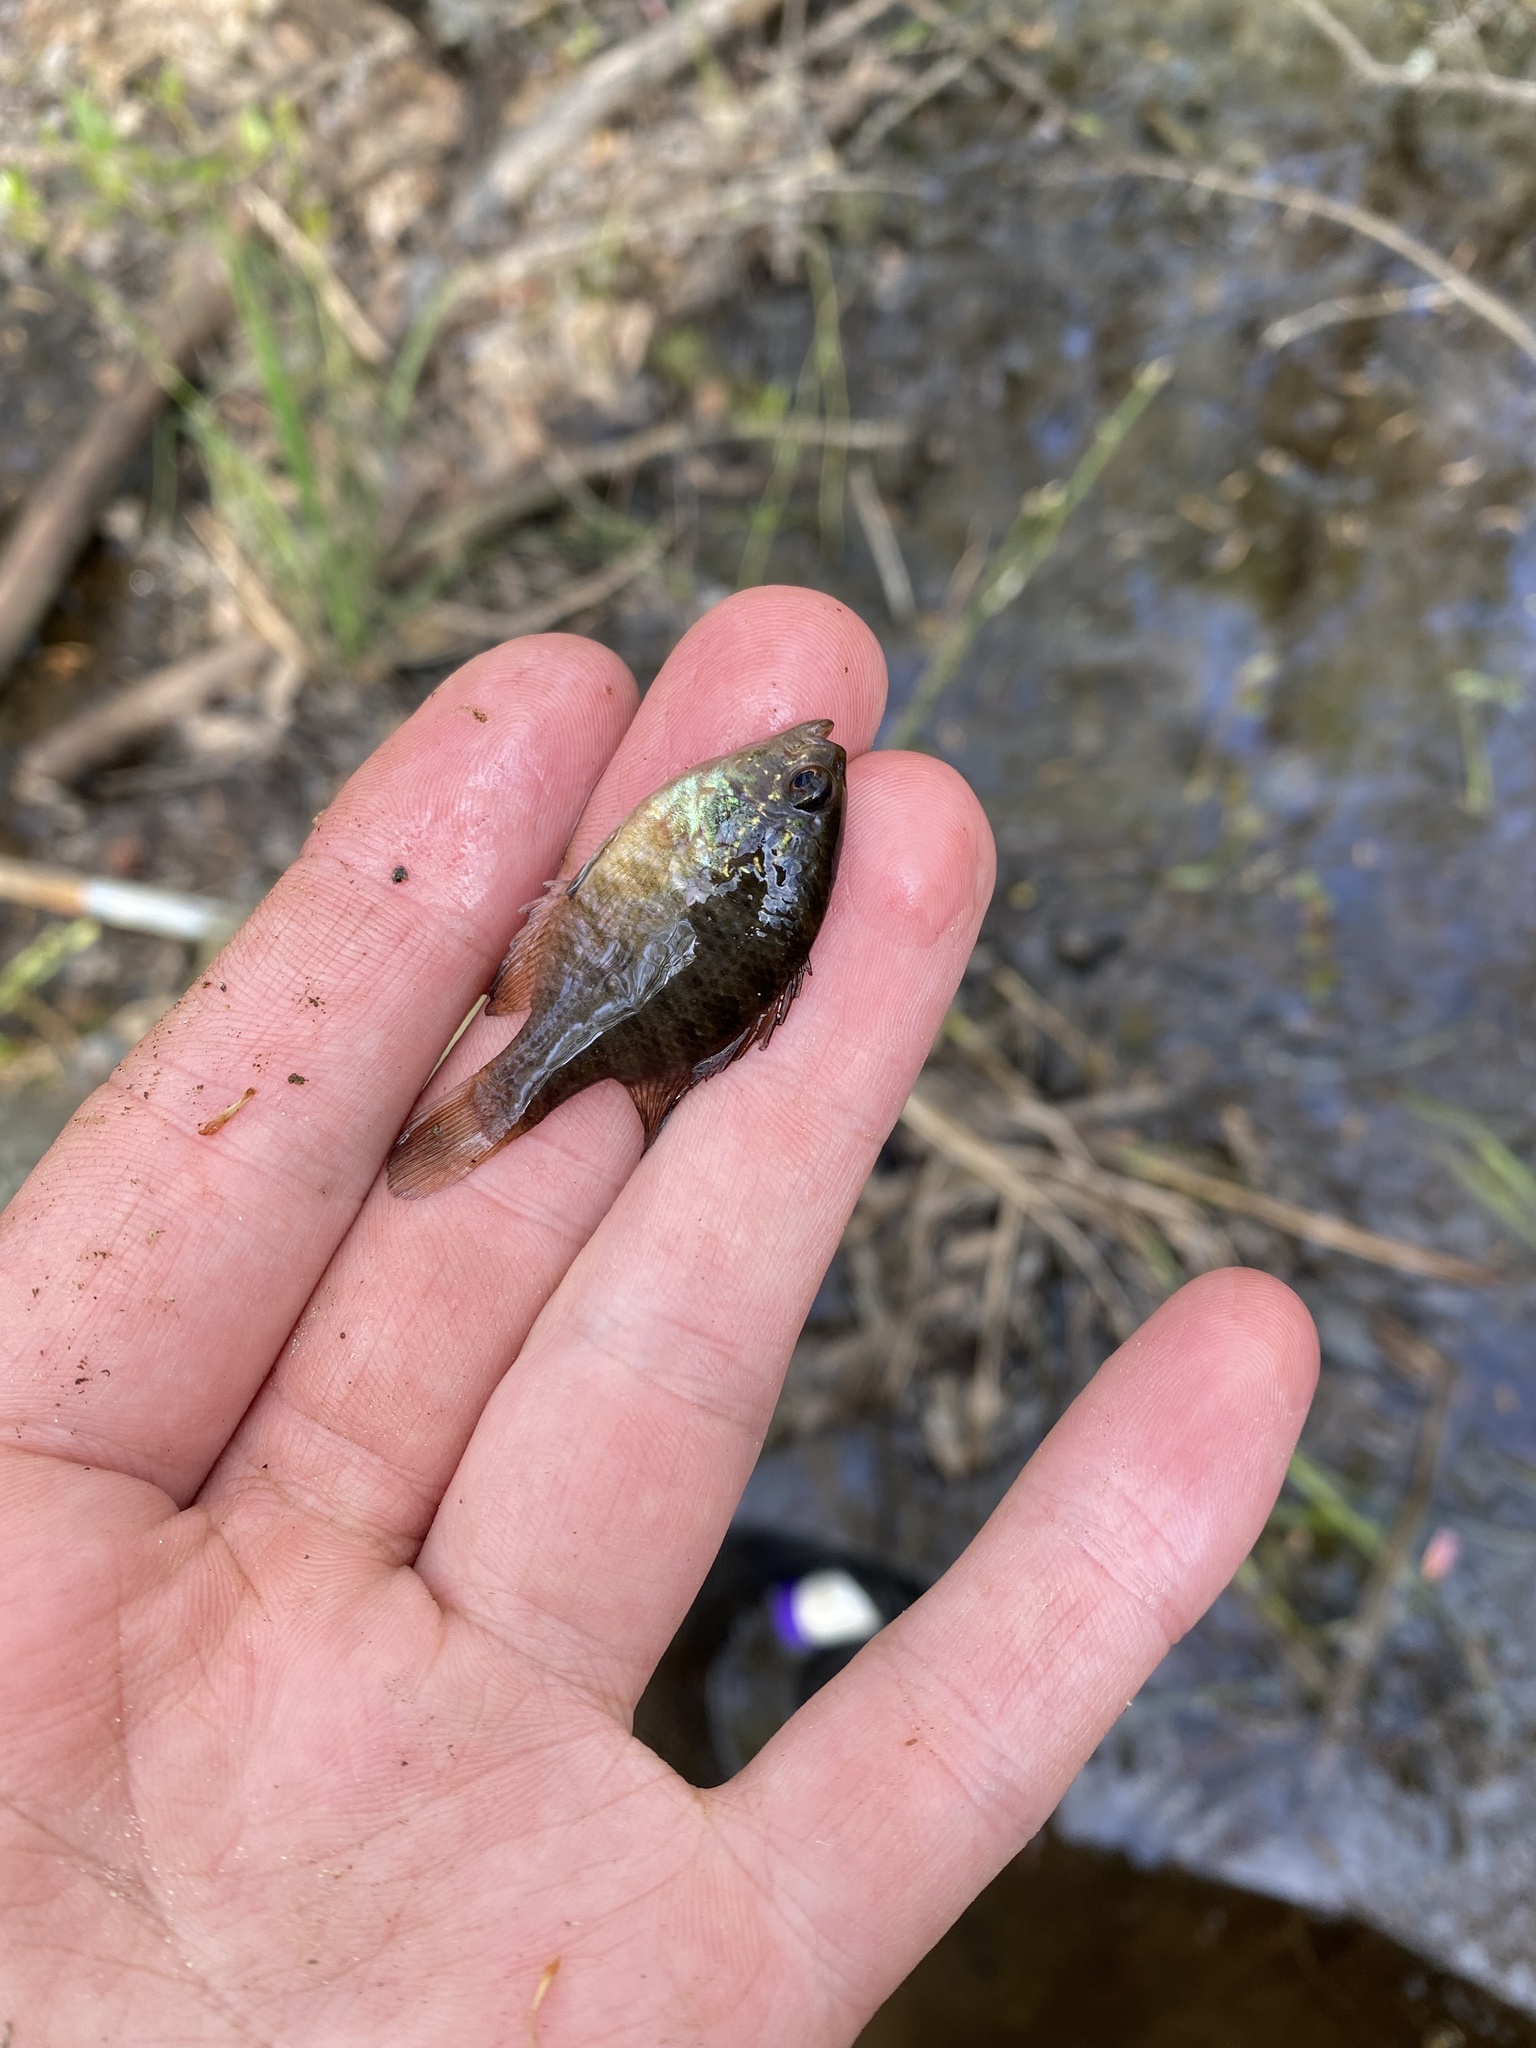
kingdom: Animalia
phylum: Chordata
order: Perciformes
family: Centrarchidae
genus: Enneacanthus
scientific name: Enneacanthus gloriosus
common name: Bluespotted sunfish
